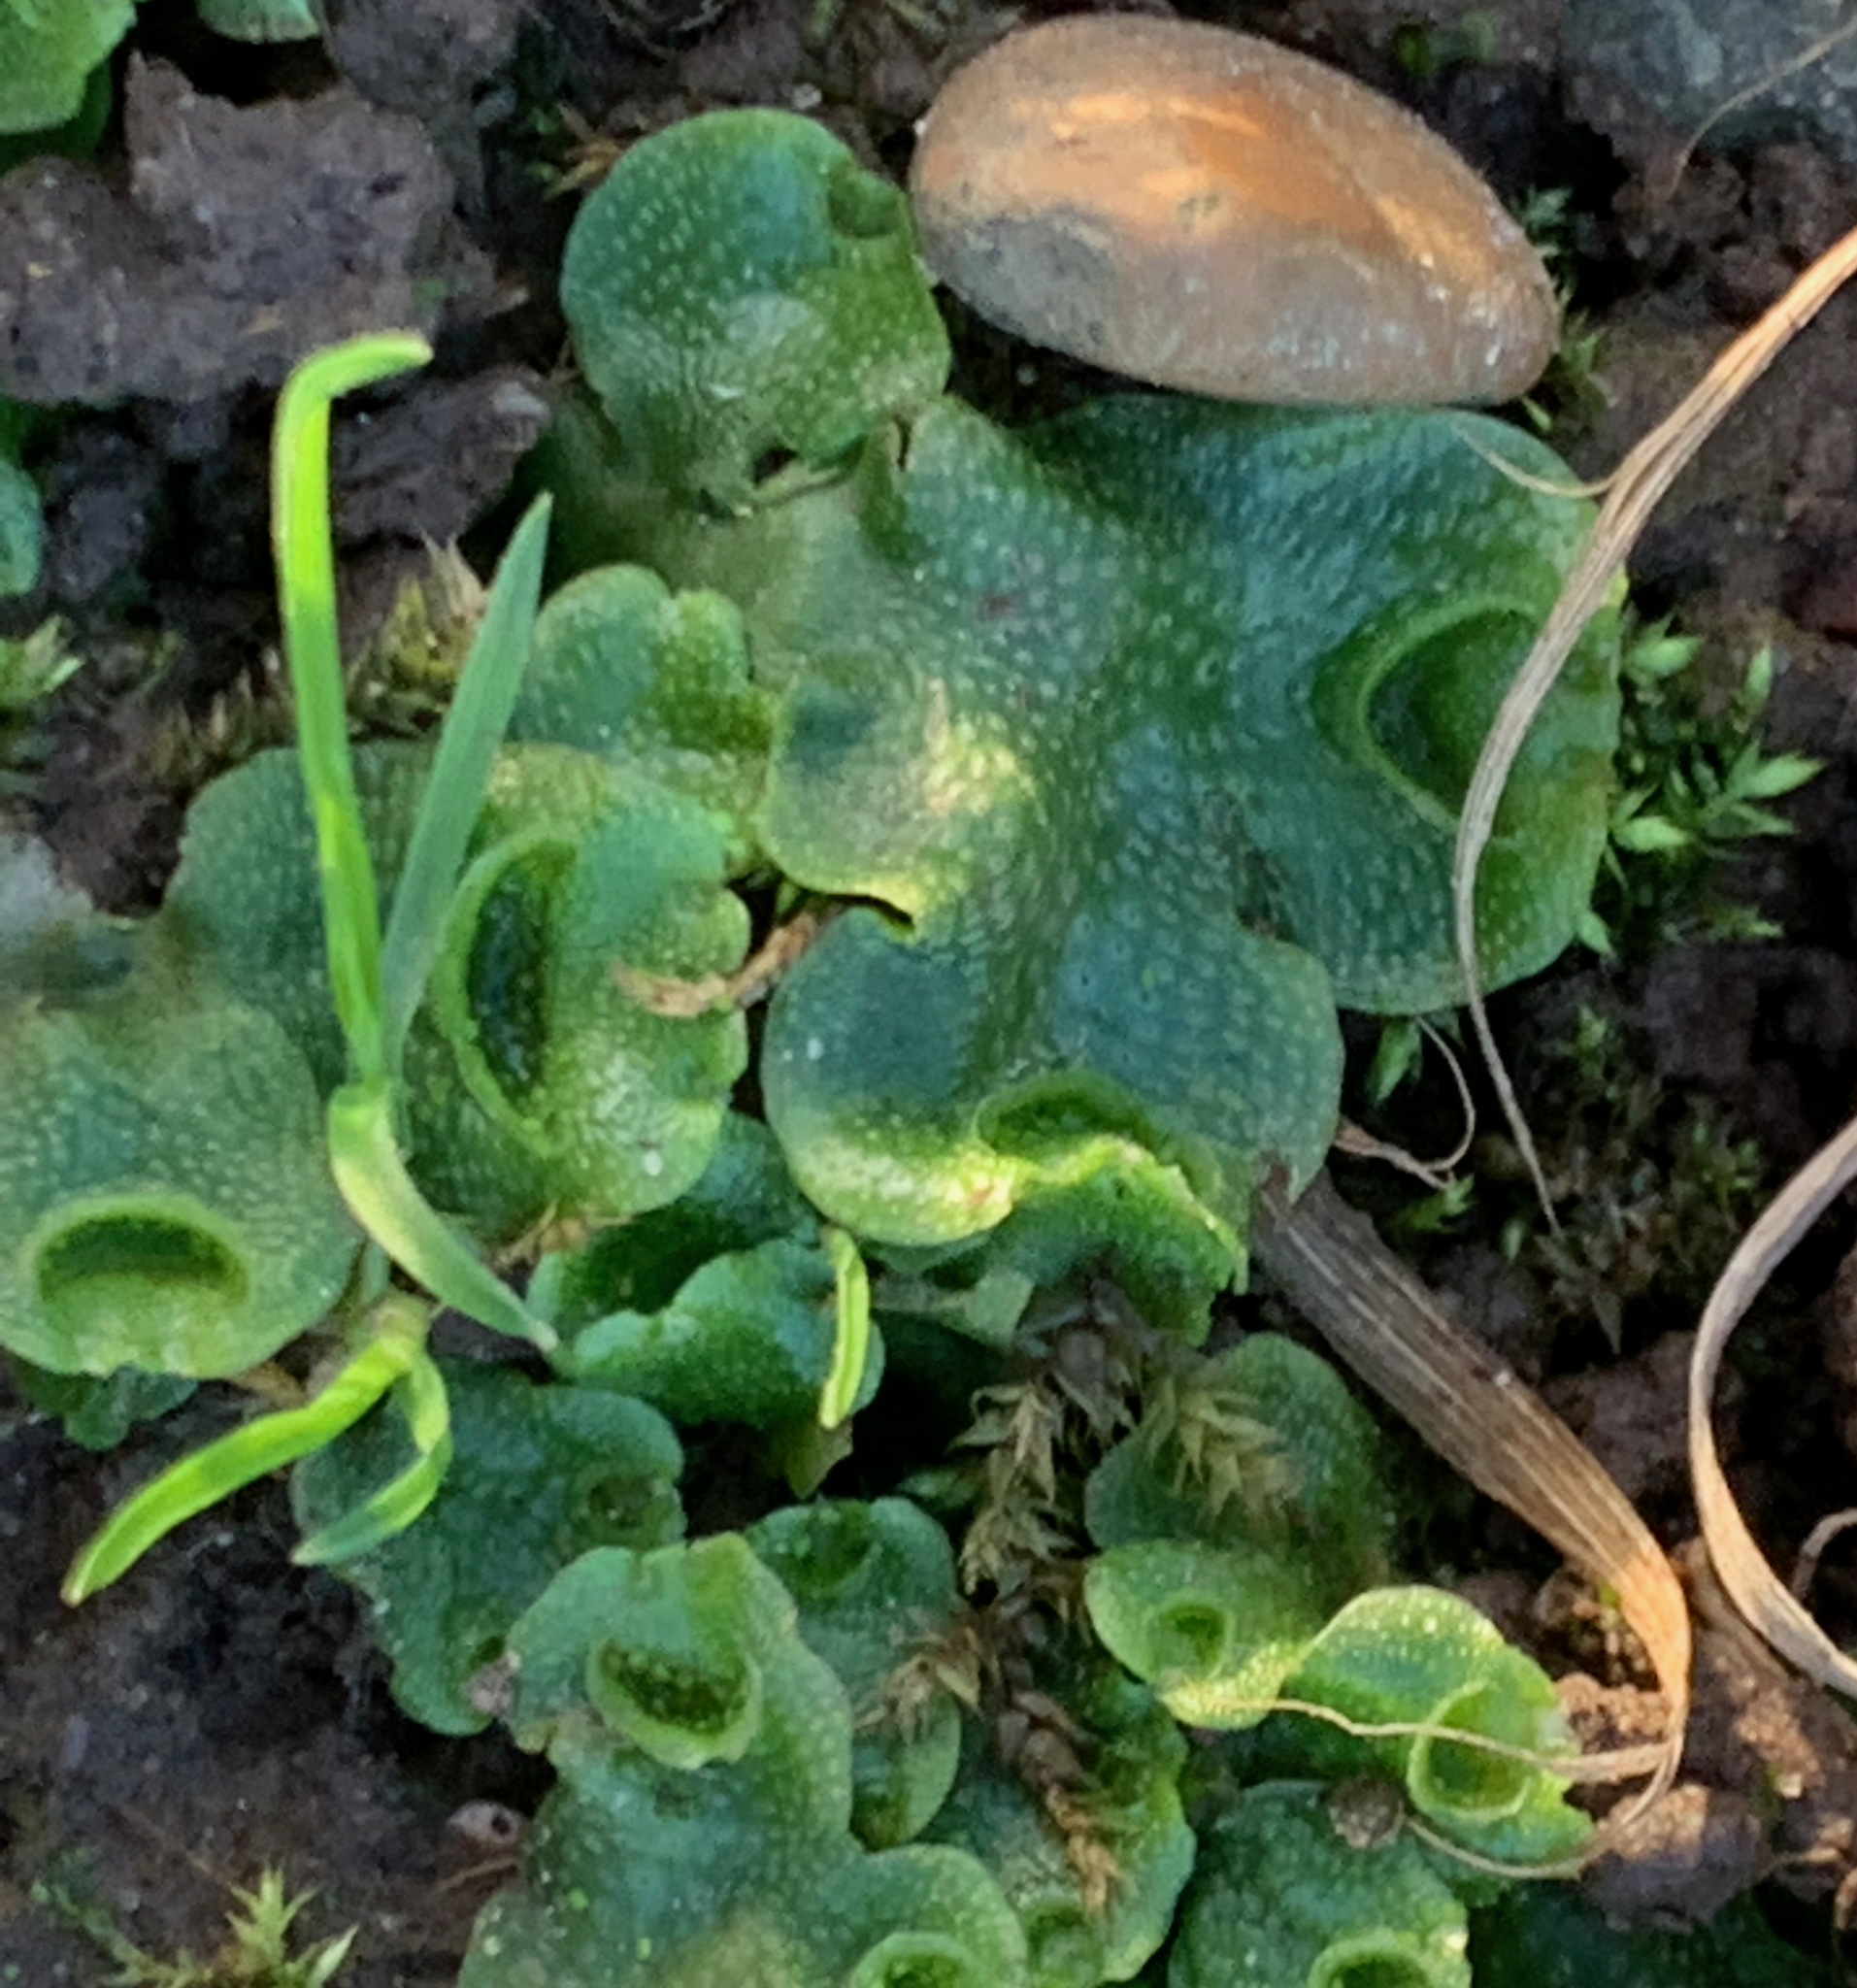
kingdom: Plantae
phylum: Marchantiophyta
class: Marchantiopsida
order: Lunulariales
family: Lunulariaceae
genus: Lunularia
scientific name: Lunularia cruciata
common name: Crescent-cup liverwort
